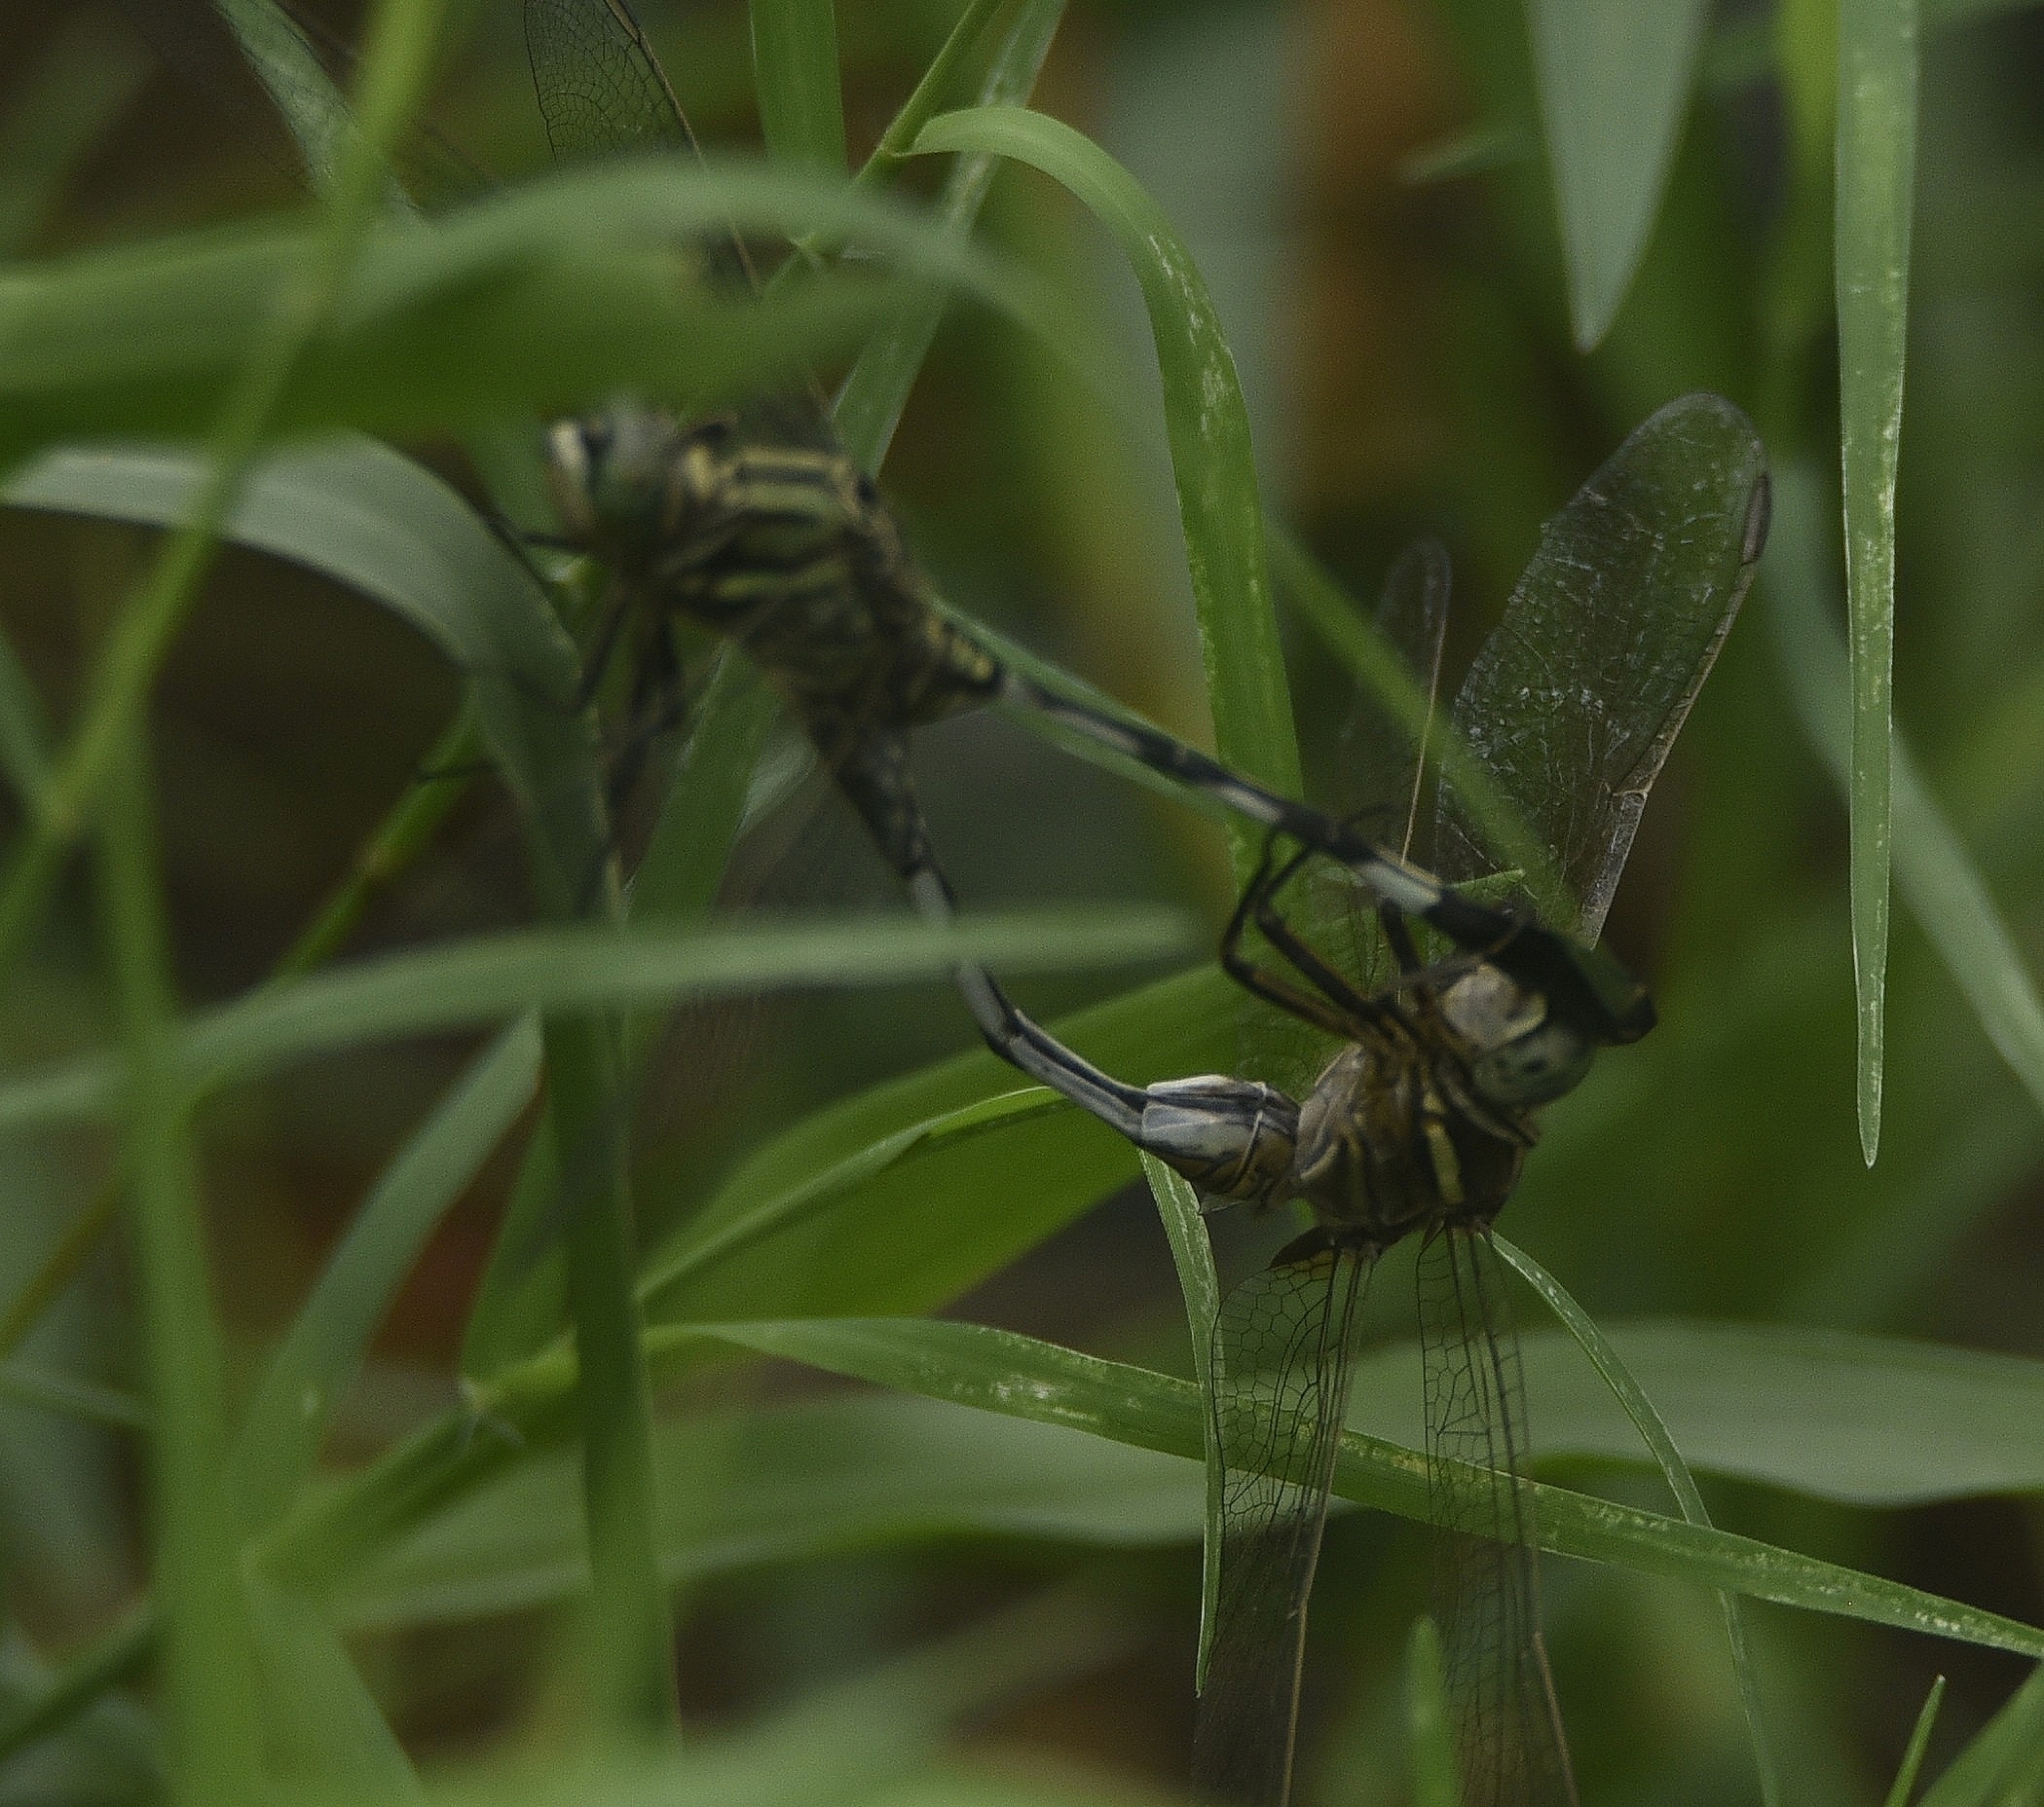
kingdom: Animalia
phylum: Arthropoda
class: Insecta
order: Odonata
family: Libellulidae
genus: Orthetrum
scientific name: Orthetrum sabina
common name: Slender skimmer
